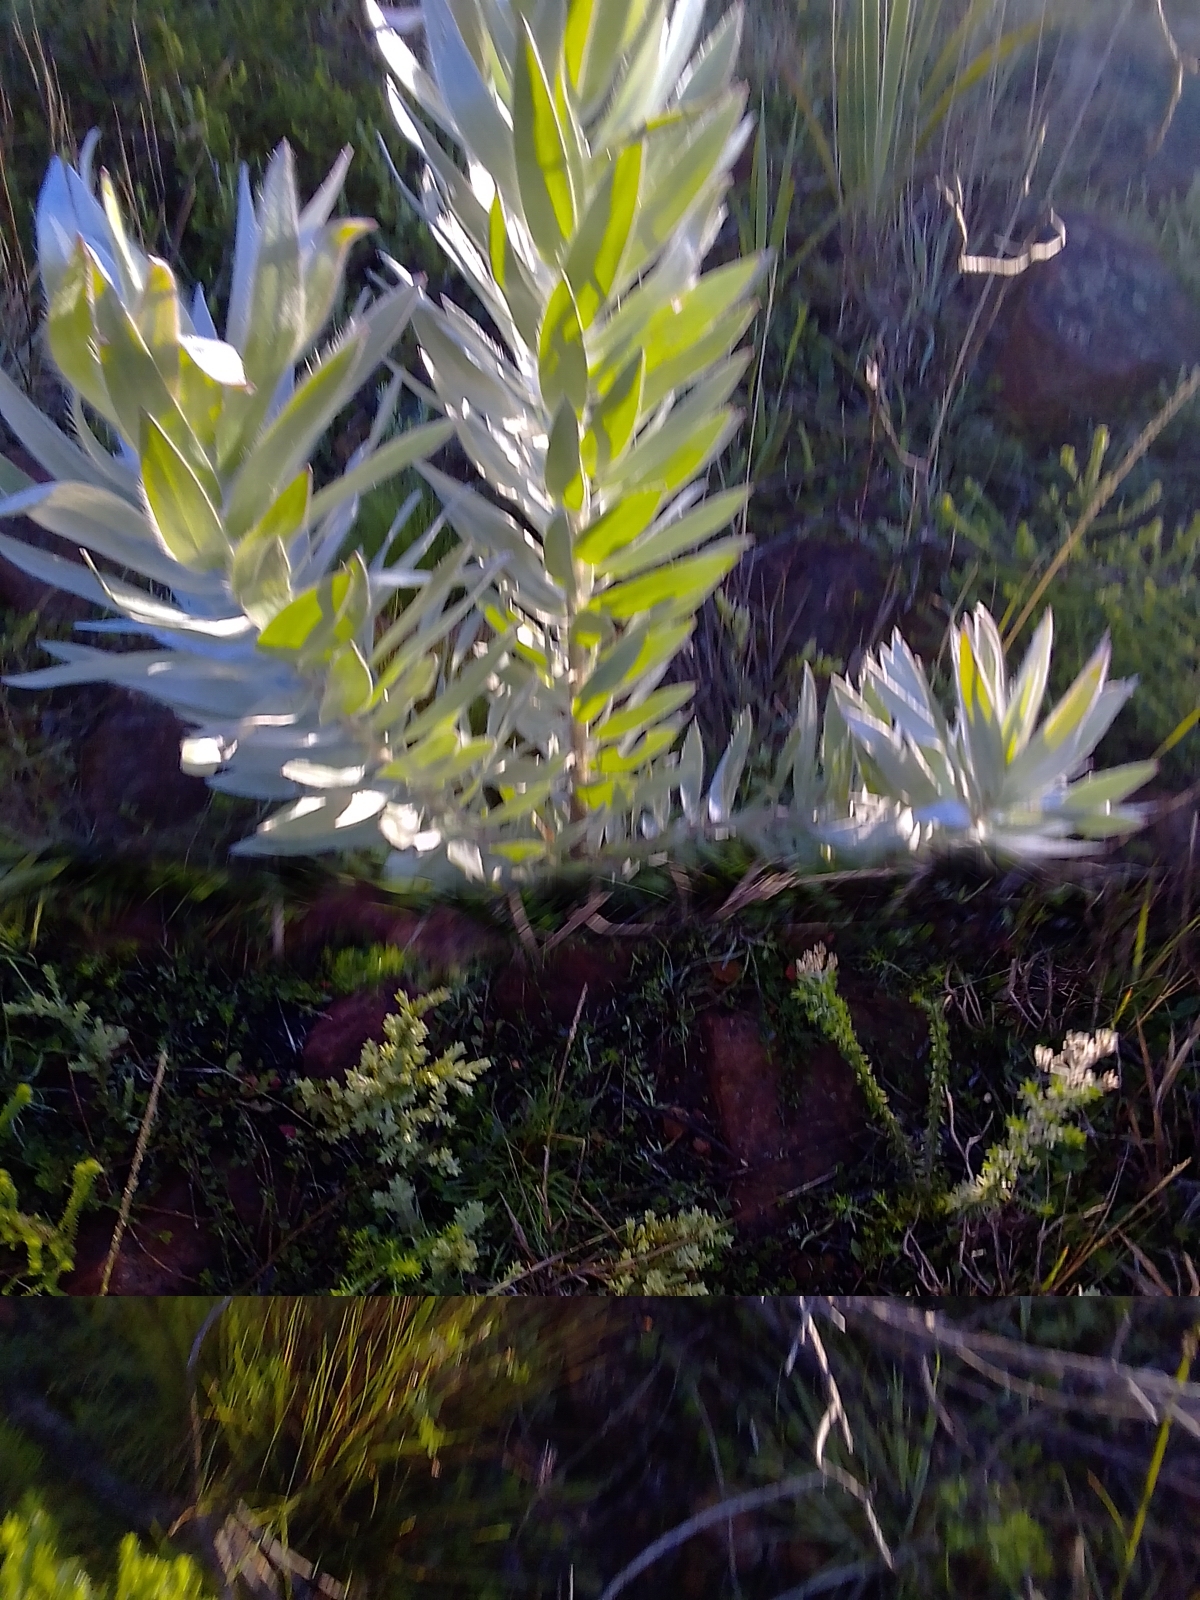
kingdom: Plantae
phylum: Tracheophyta
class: Magnoliopsida
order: Proteales
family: Proteaceae
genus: Leucadendron
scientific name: Leucadendron argenteum
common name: Cape silver tree
